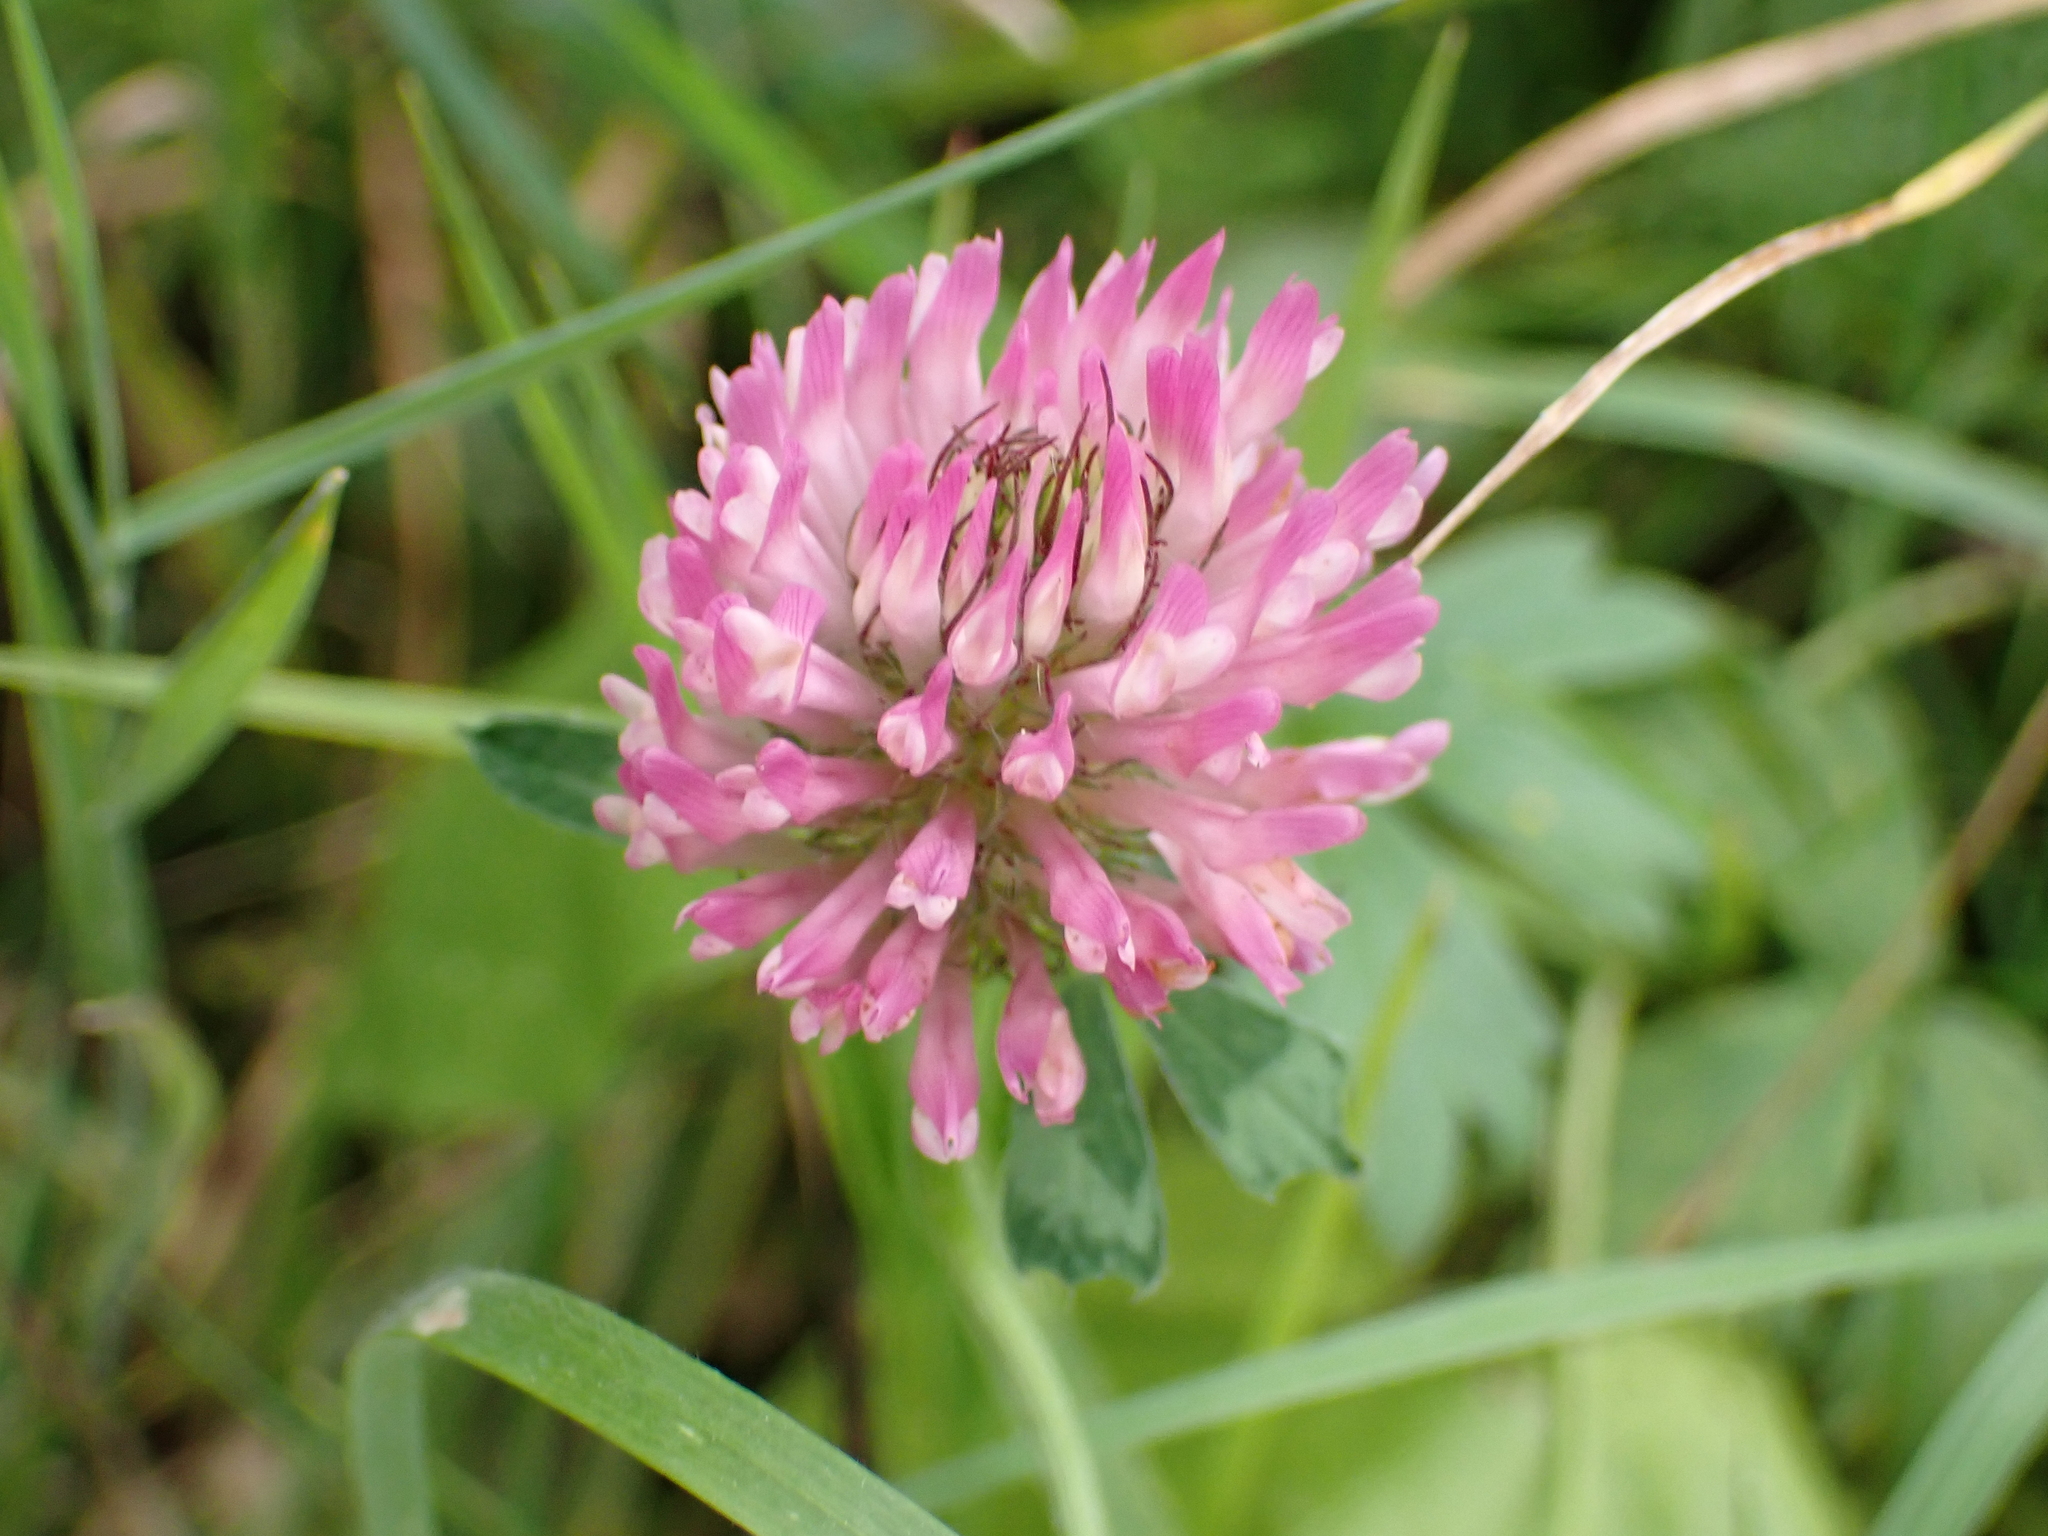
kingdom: Plantae
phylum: Tracheophyta
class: Magnoliopsida
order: Fabales
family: Fabaceae
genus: Trifolium
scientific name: Trifolium pratense
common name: Red clover
